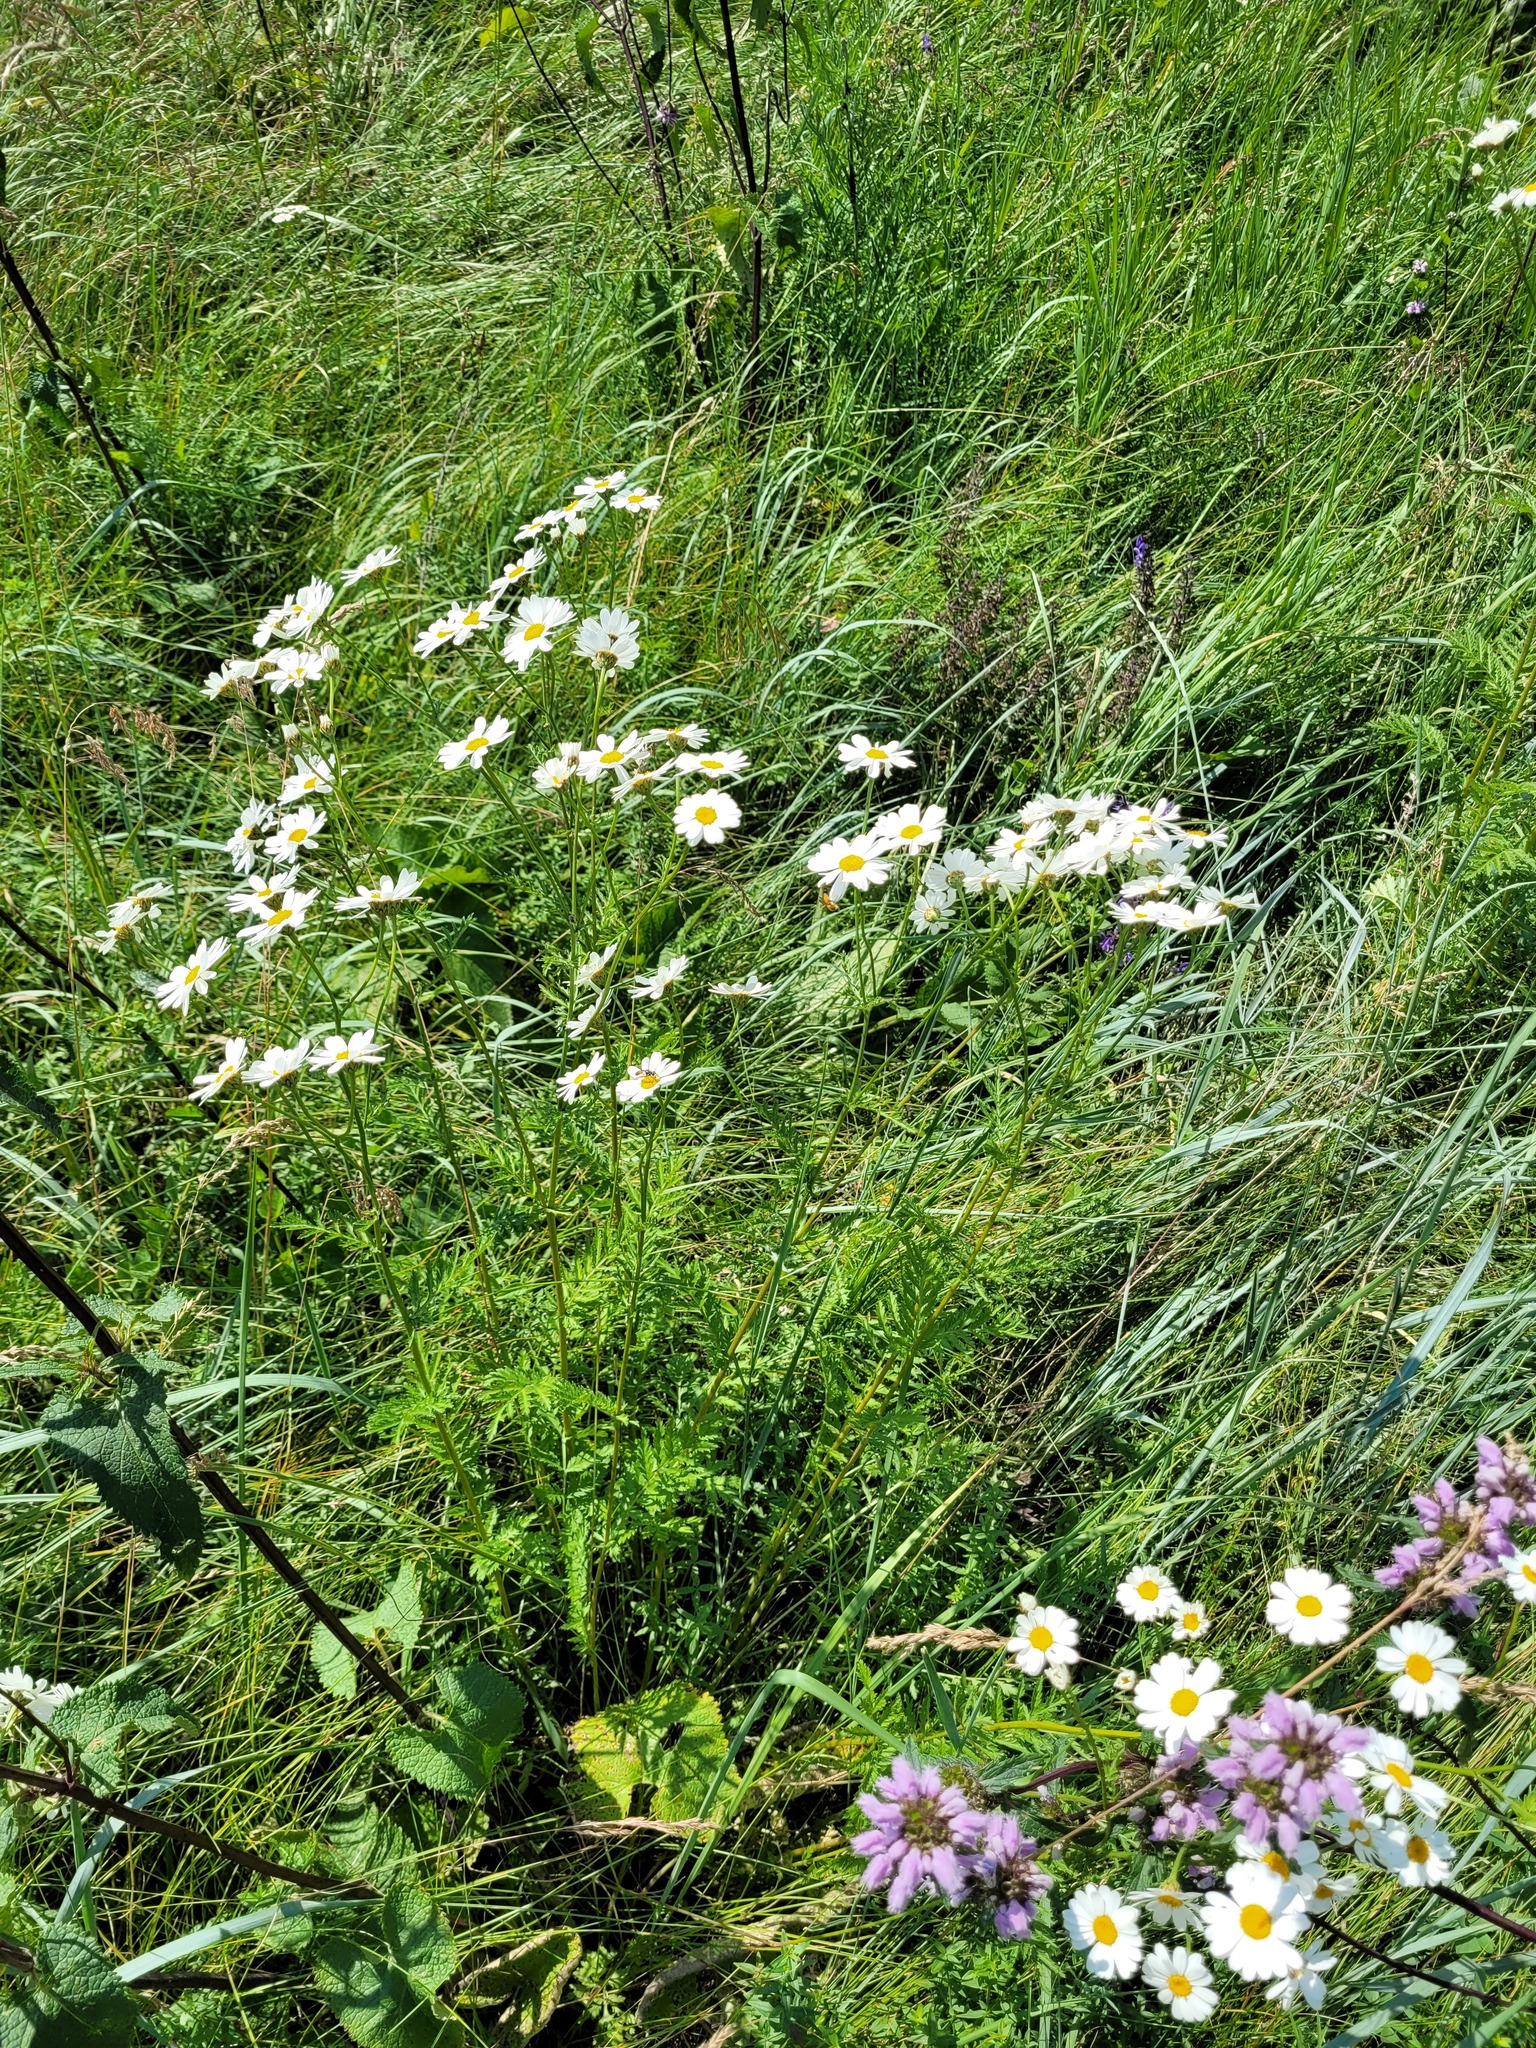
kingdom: Plantae
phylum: Tracheophyta
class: Magnoliopsida
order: Asterales
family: Asteraceae
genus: Tanacetum
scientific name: Tanacetum corymbosum
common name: Scentless feverfew
